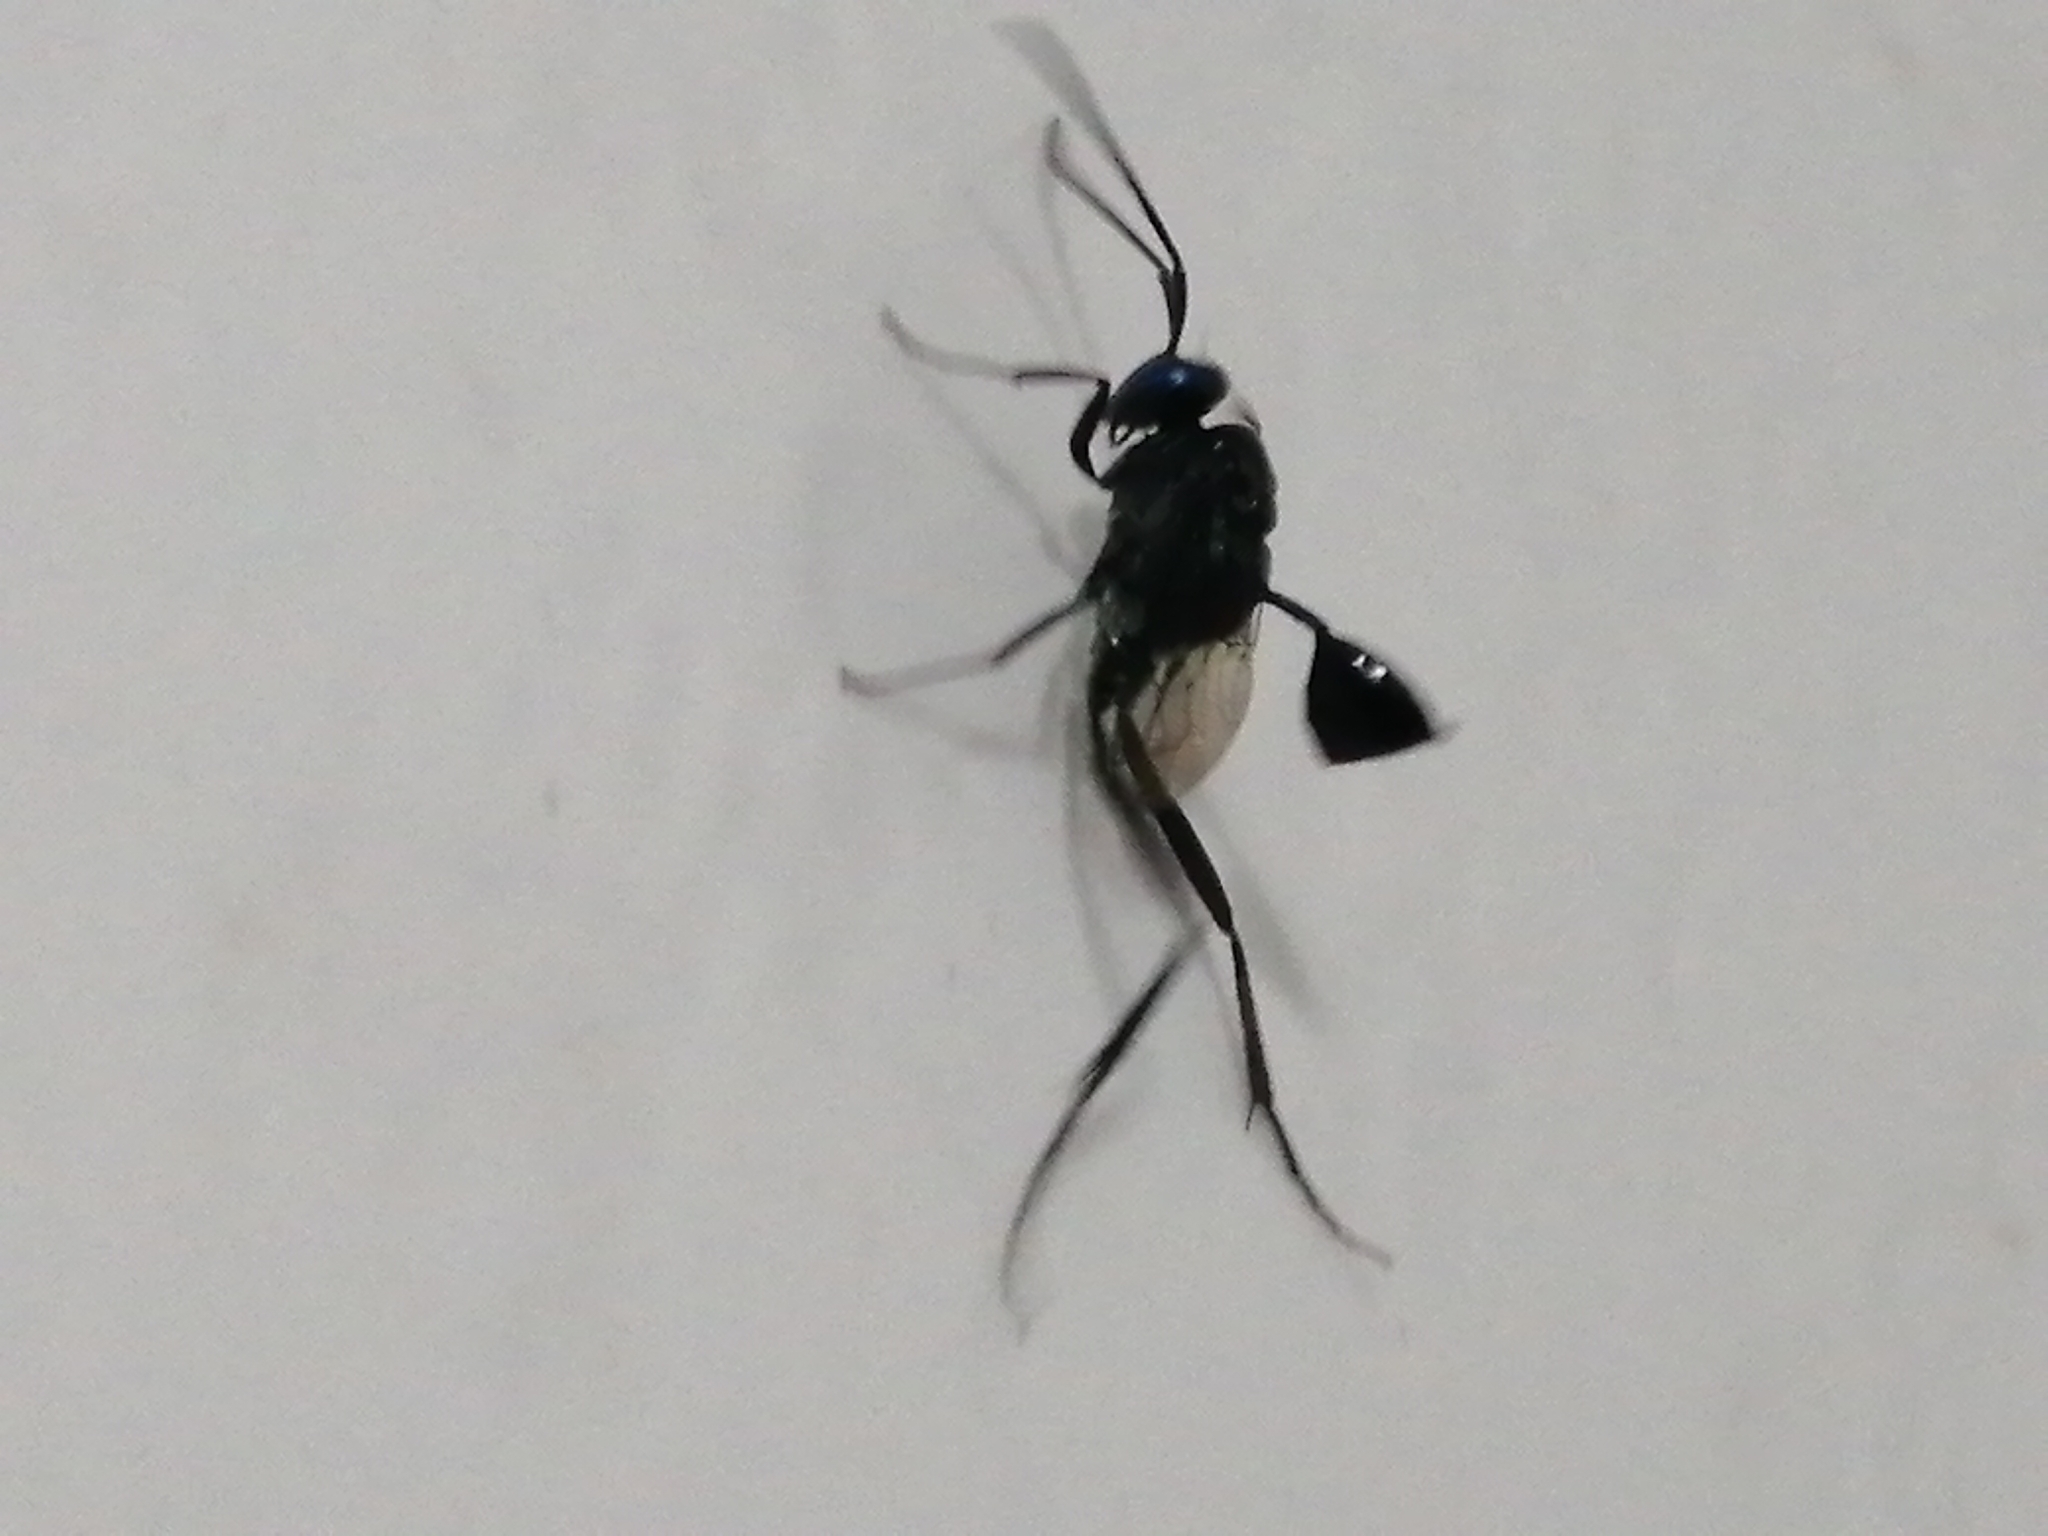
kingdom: Animalia
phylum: Arthropoda
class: Insecta
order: Hymenoptera
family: Evaniidae
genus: Evania
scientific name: Evania appendigaster
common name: Ensign wasp
